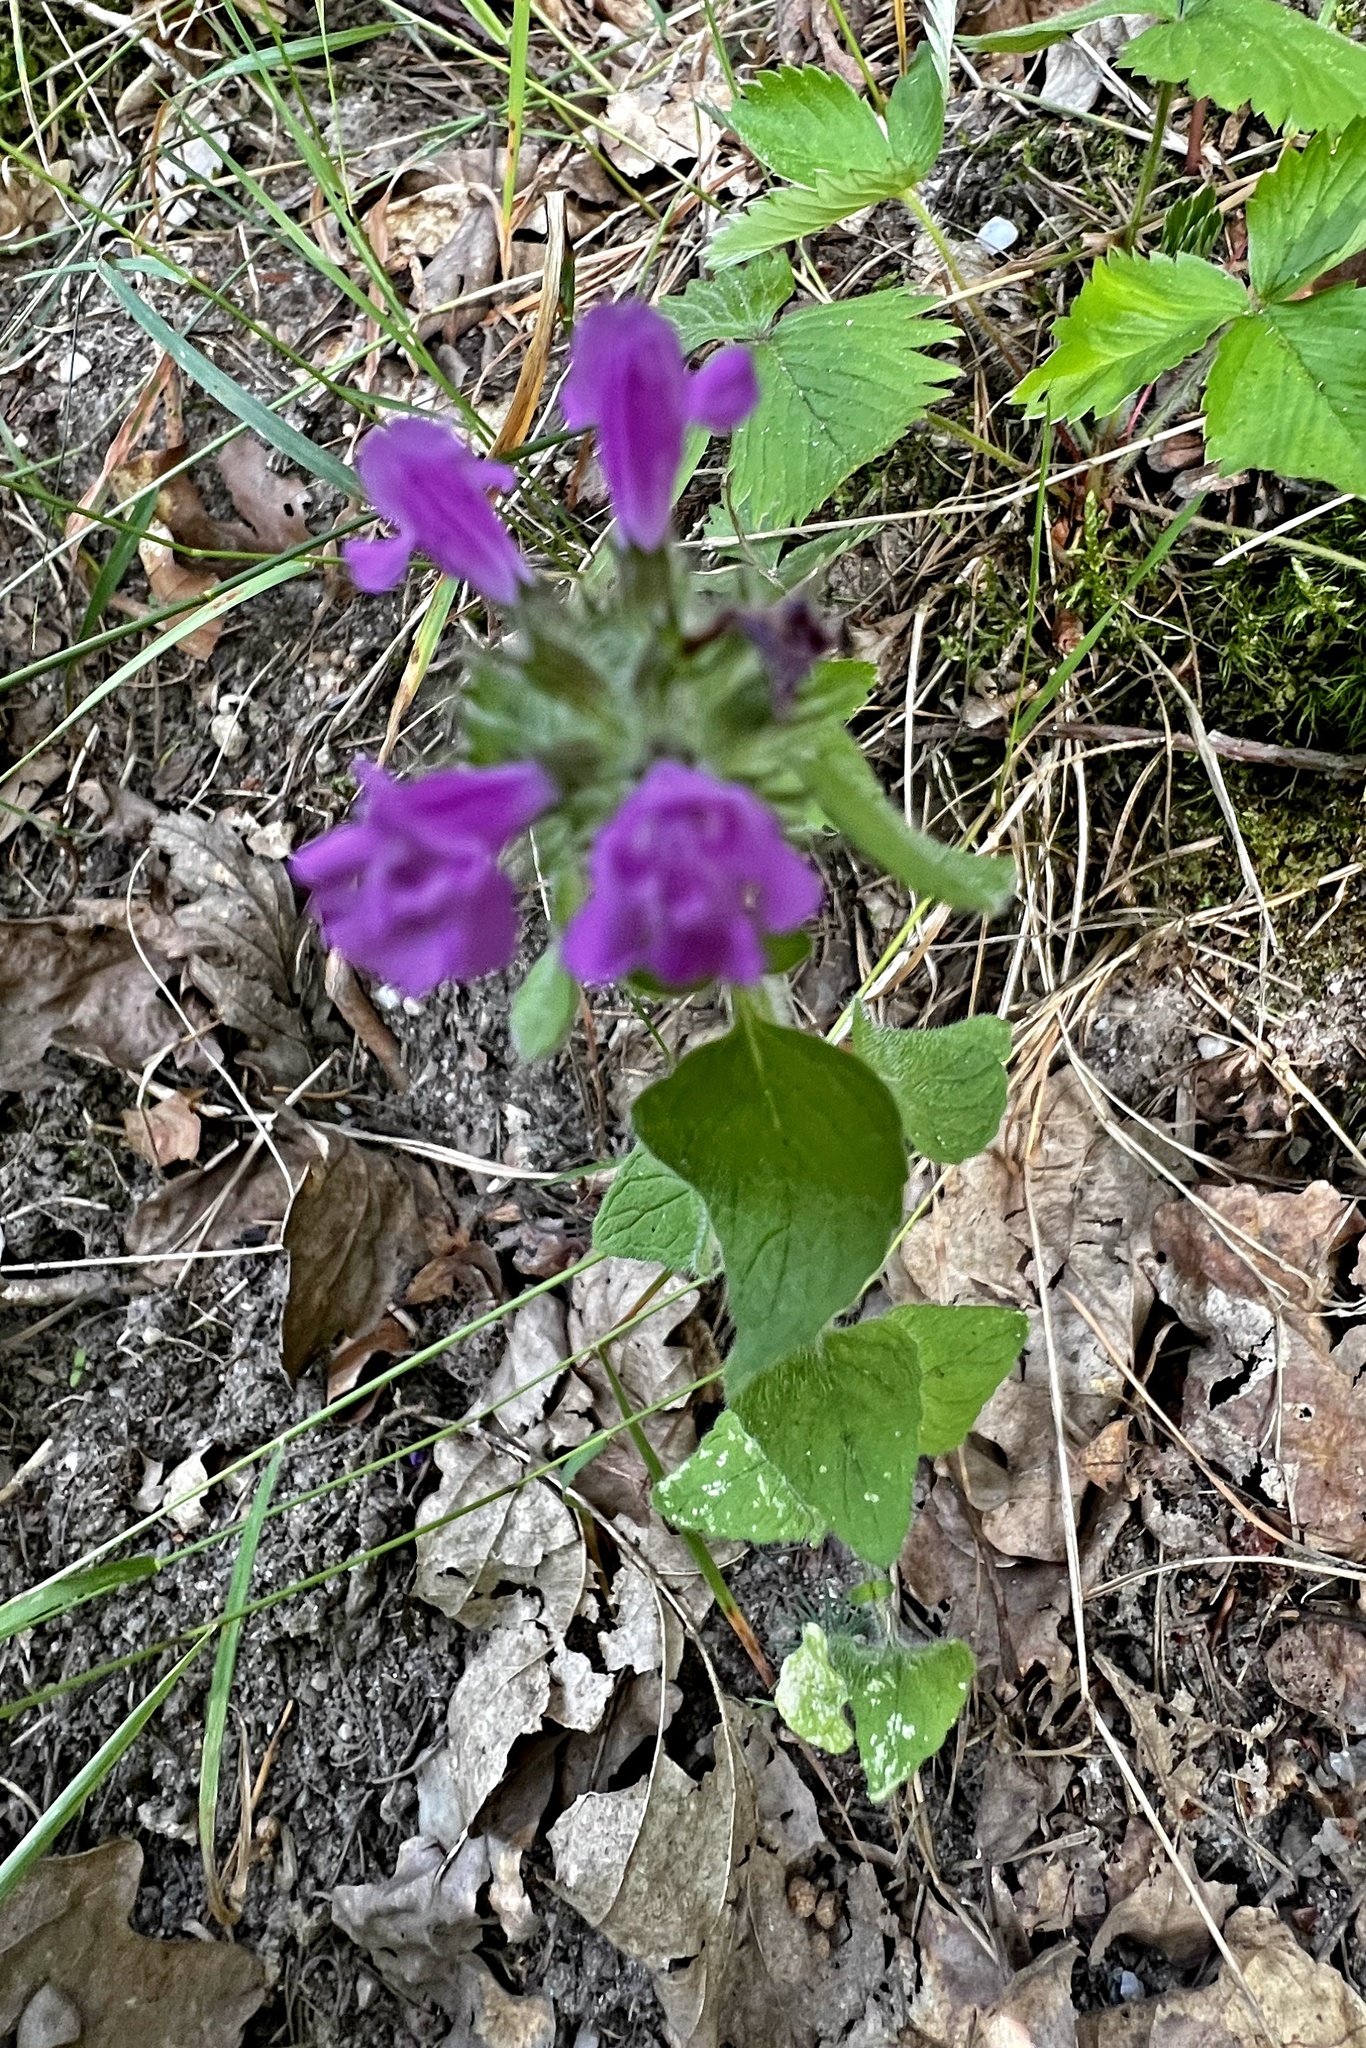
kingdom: Plantae
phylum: Tracheophyta
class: Magnoliopsida
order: Lamiales
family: Lamiaceae
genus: Clinopodium
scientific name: Clinopodium vulgare
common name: Wild basil
